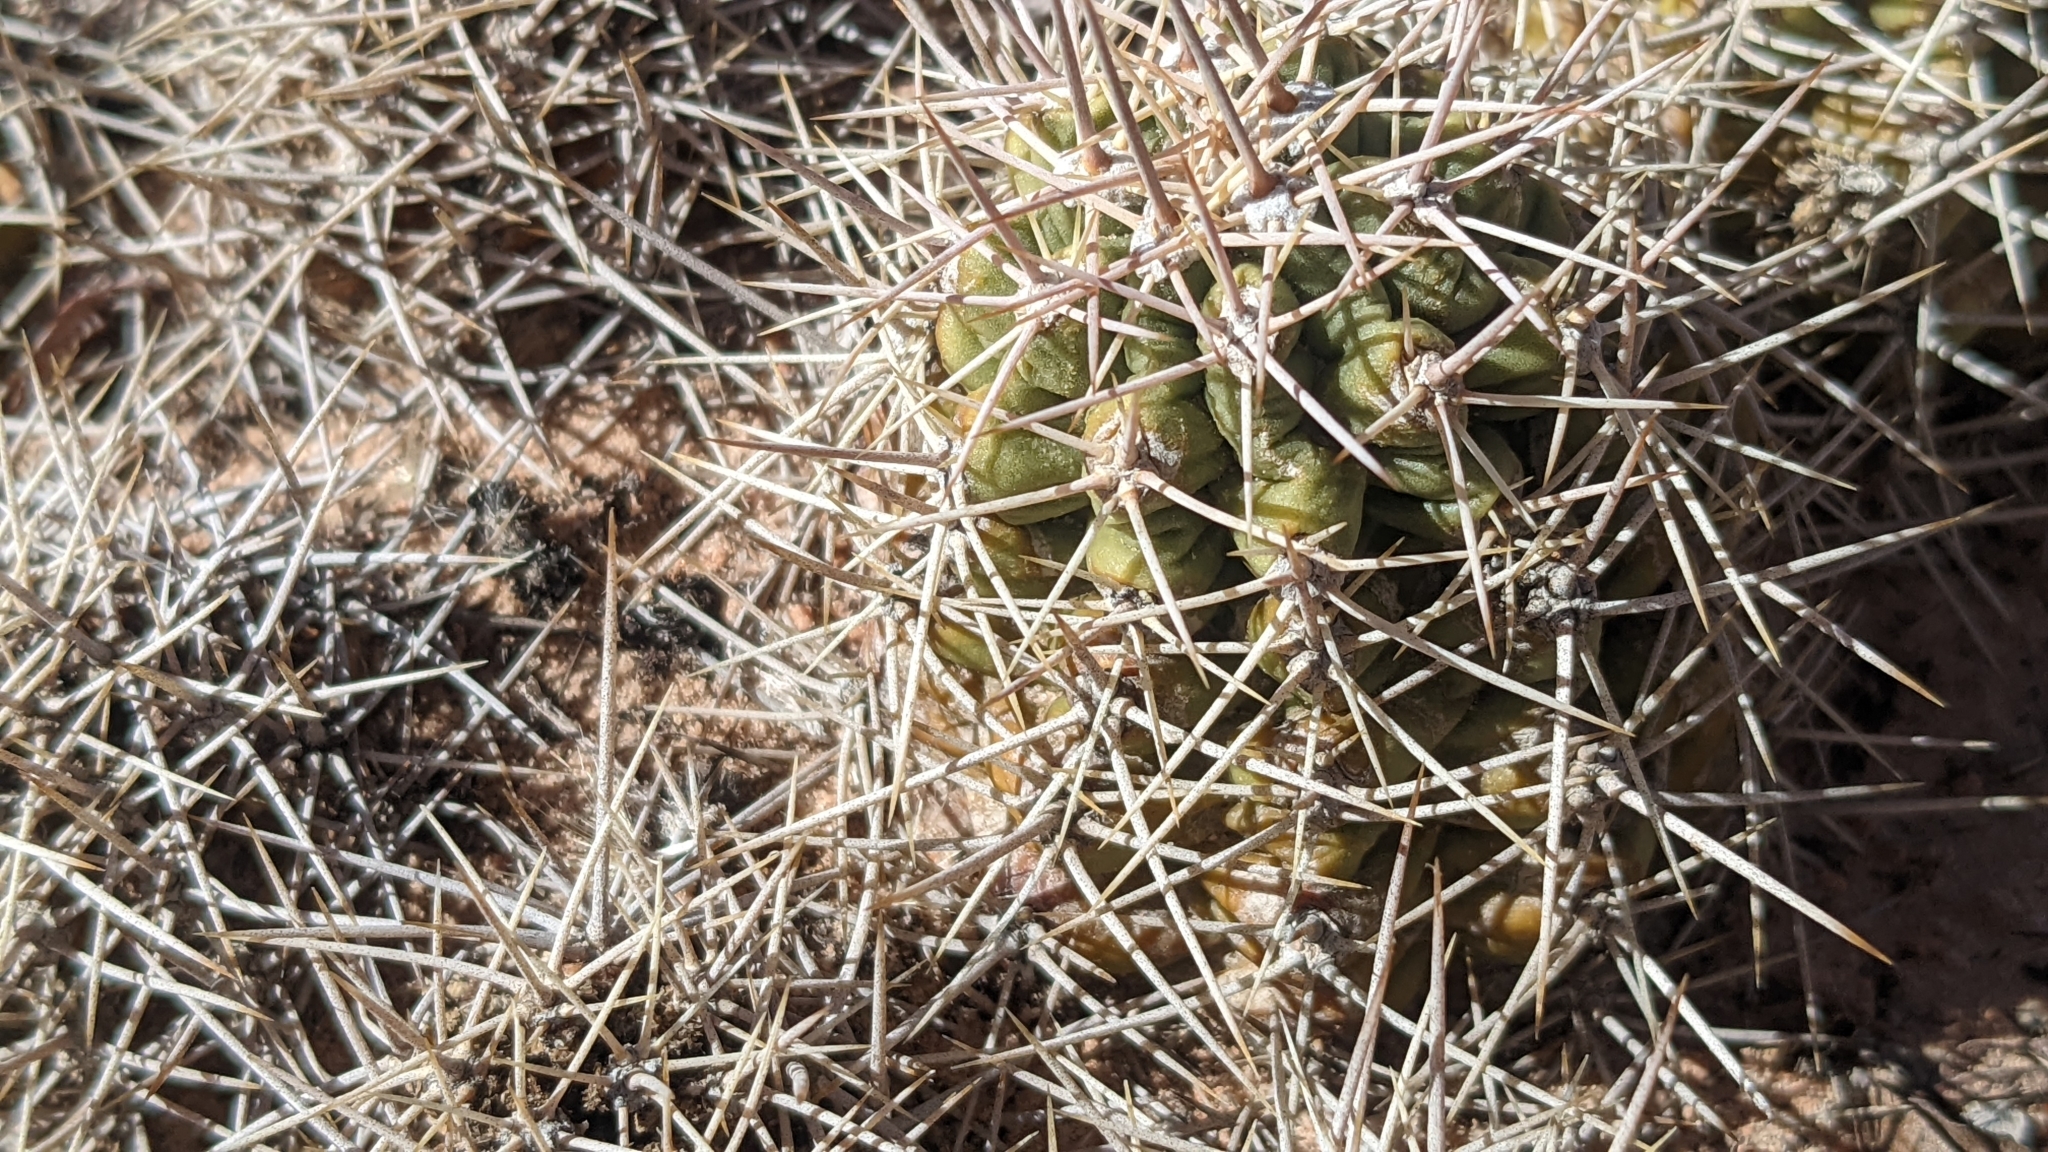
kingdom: Plantae
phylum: Tracheophyta
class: Magnoliopsida
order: Caryophyllales
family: Cactaceae
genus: Echinocereus
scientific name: Echinocereus triglochidiatus
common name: Claretcup hedgehog
